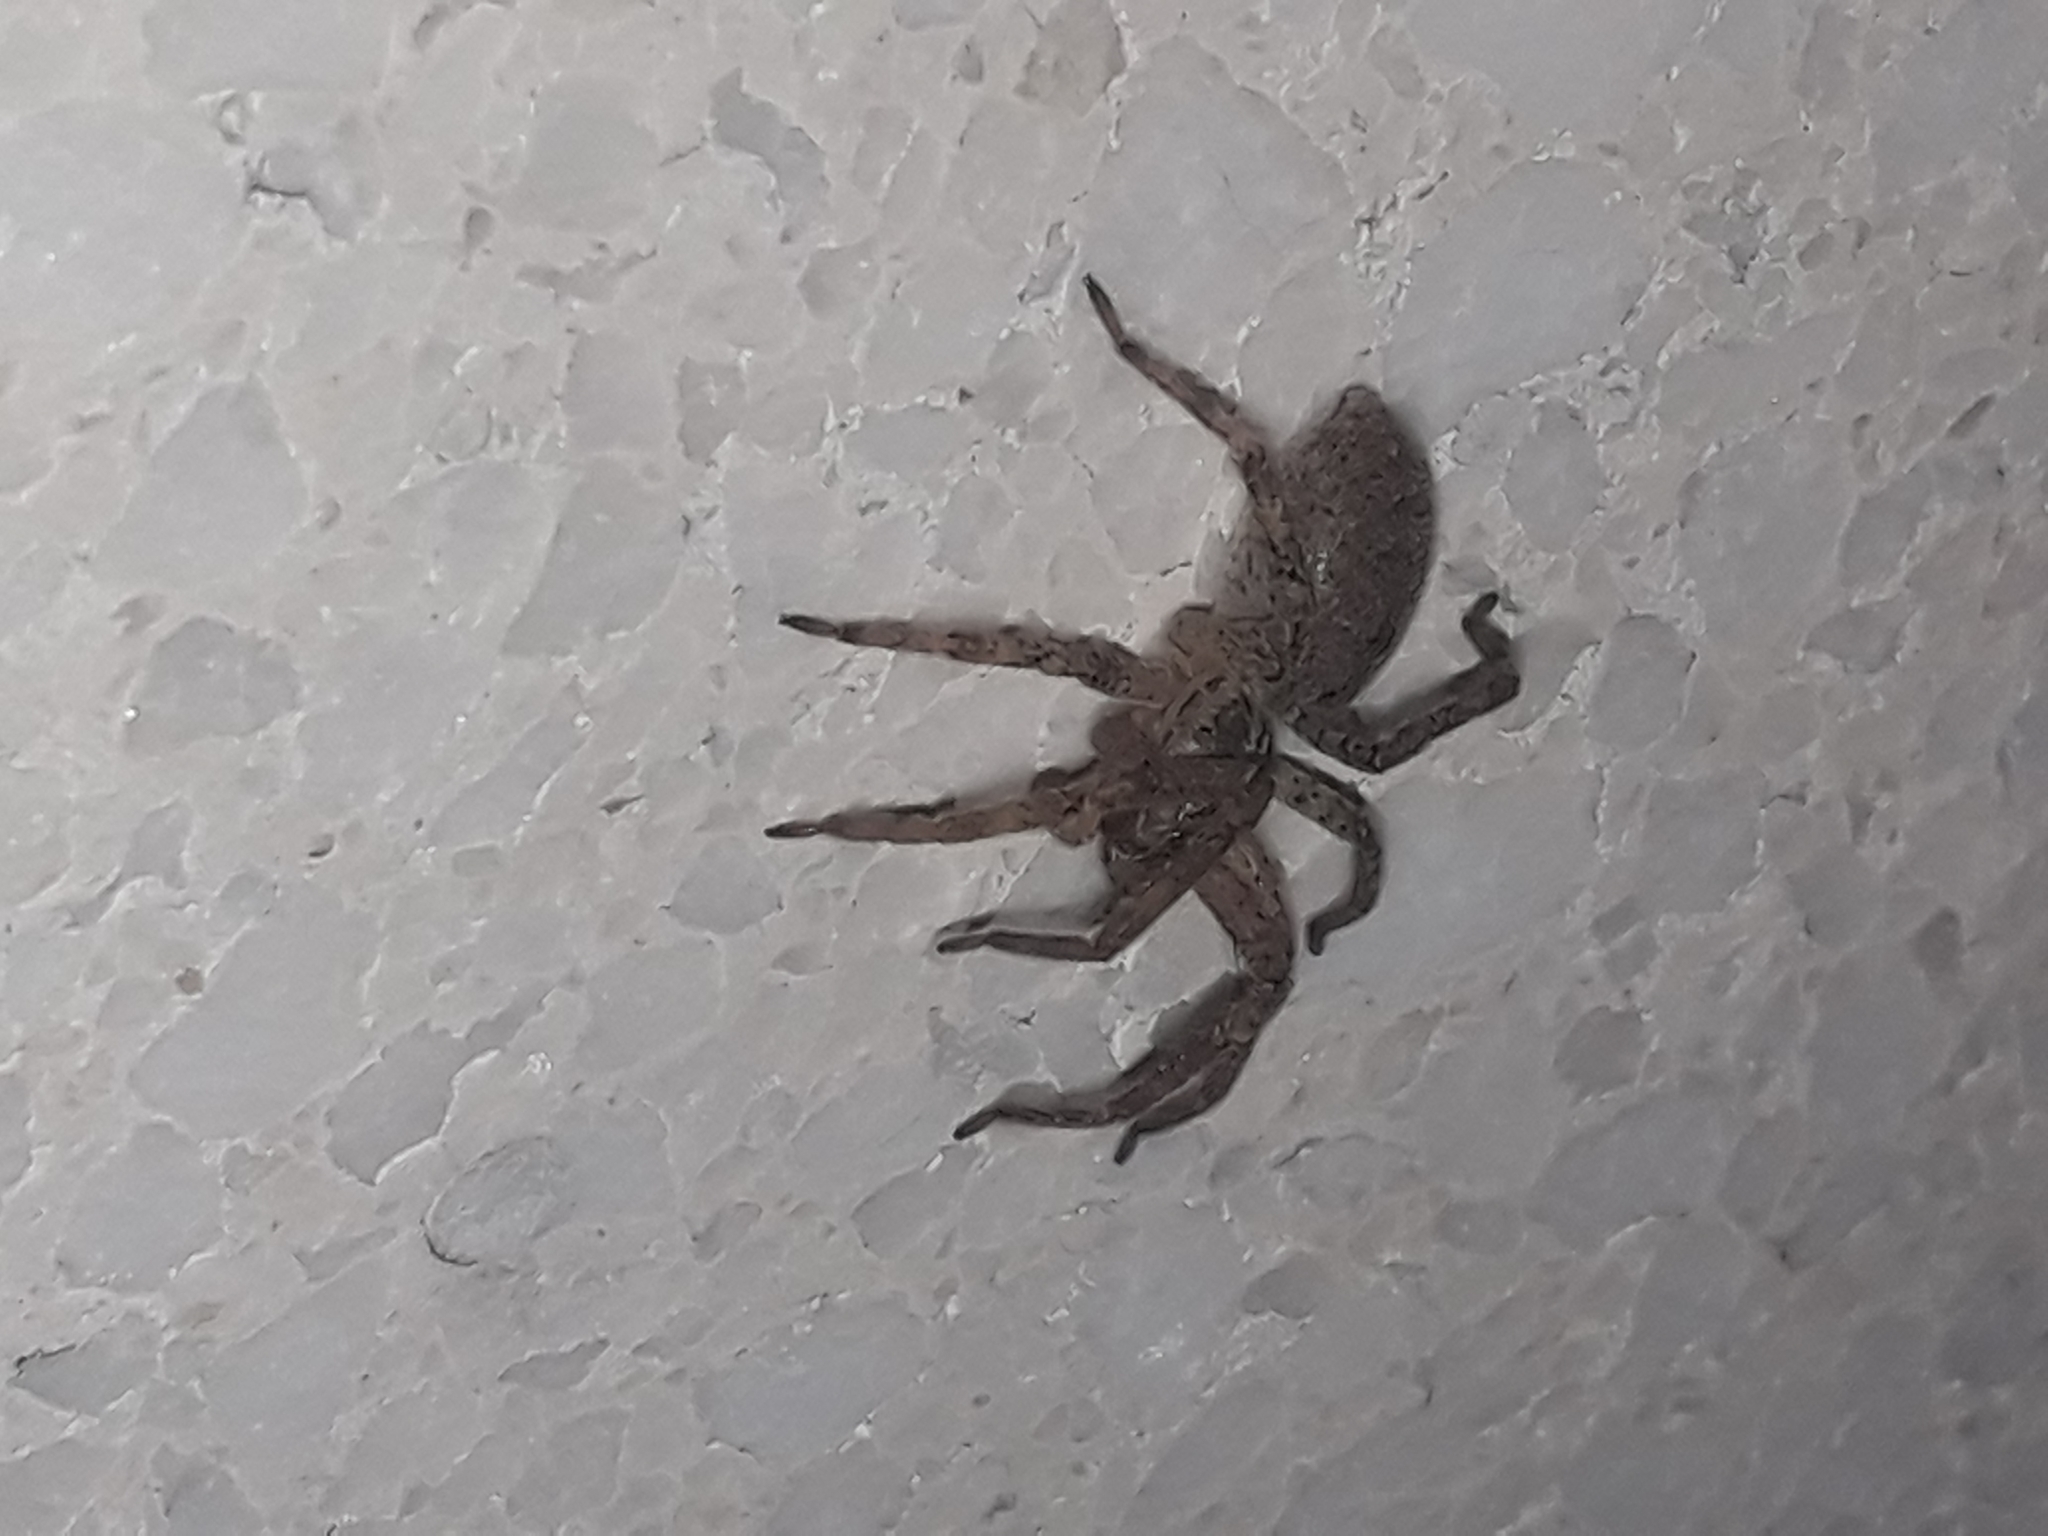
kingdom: Animalia
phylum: Arthropoda
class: Arachnida
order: Araneae
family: Zoropsidae
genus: Zoropsis
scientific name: Zoropsis spinimana
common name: Zoropsid spider
